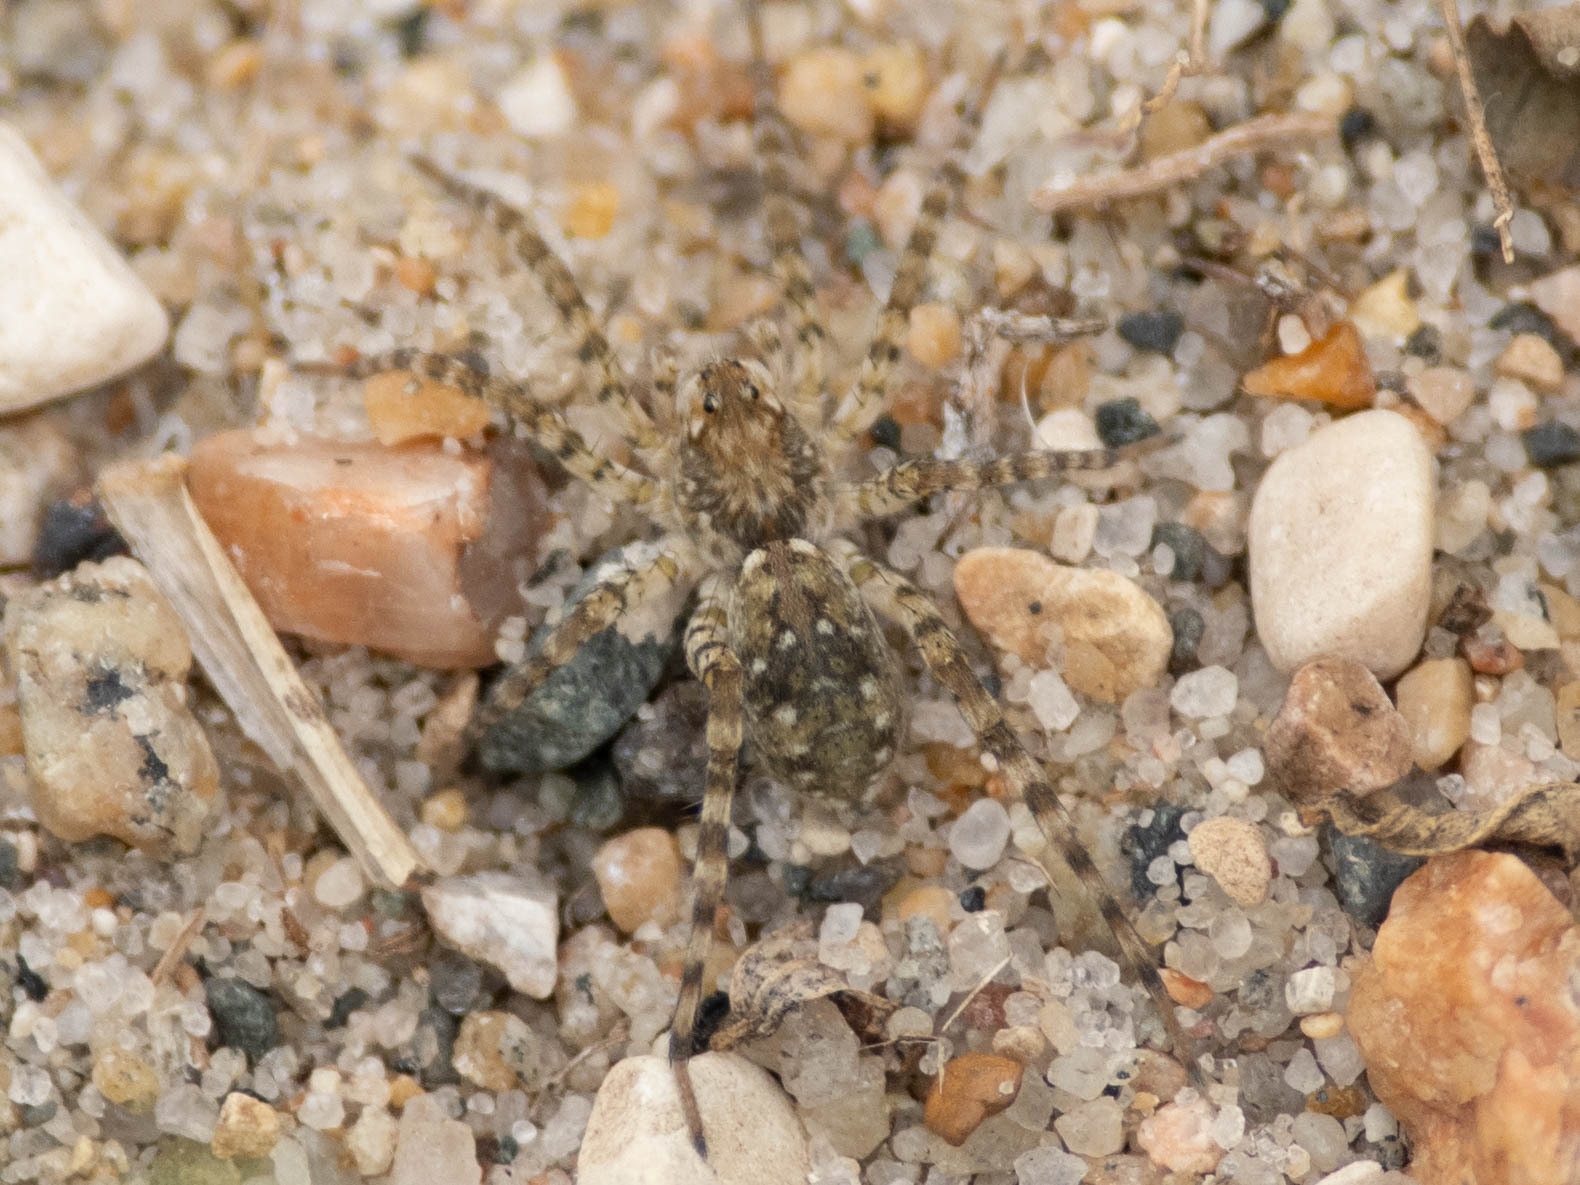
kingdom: Animalia
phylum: Arthropoda
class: Arachnida
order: Araneae
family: Lycosidae
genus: Arctosa
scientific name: Arctosa littoralis
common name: Wolf spiders
